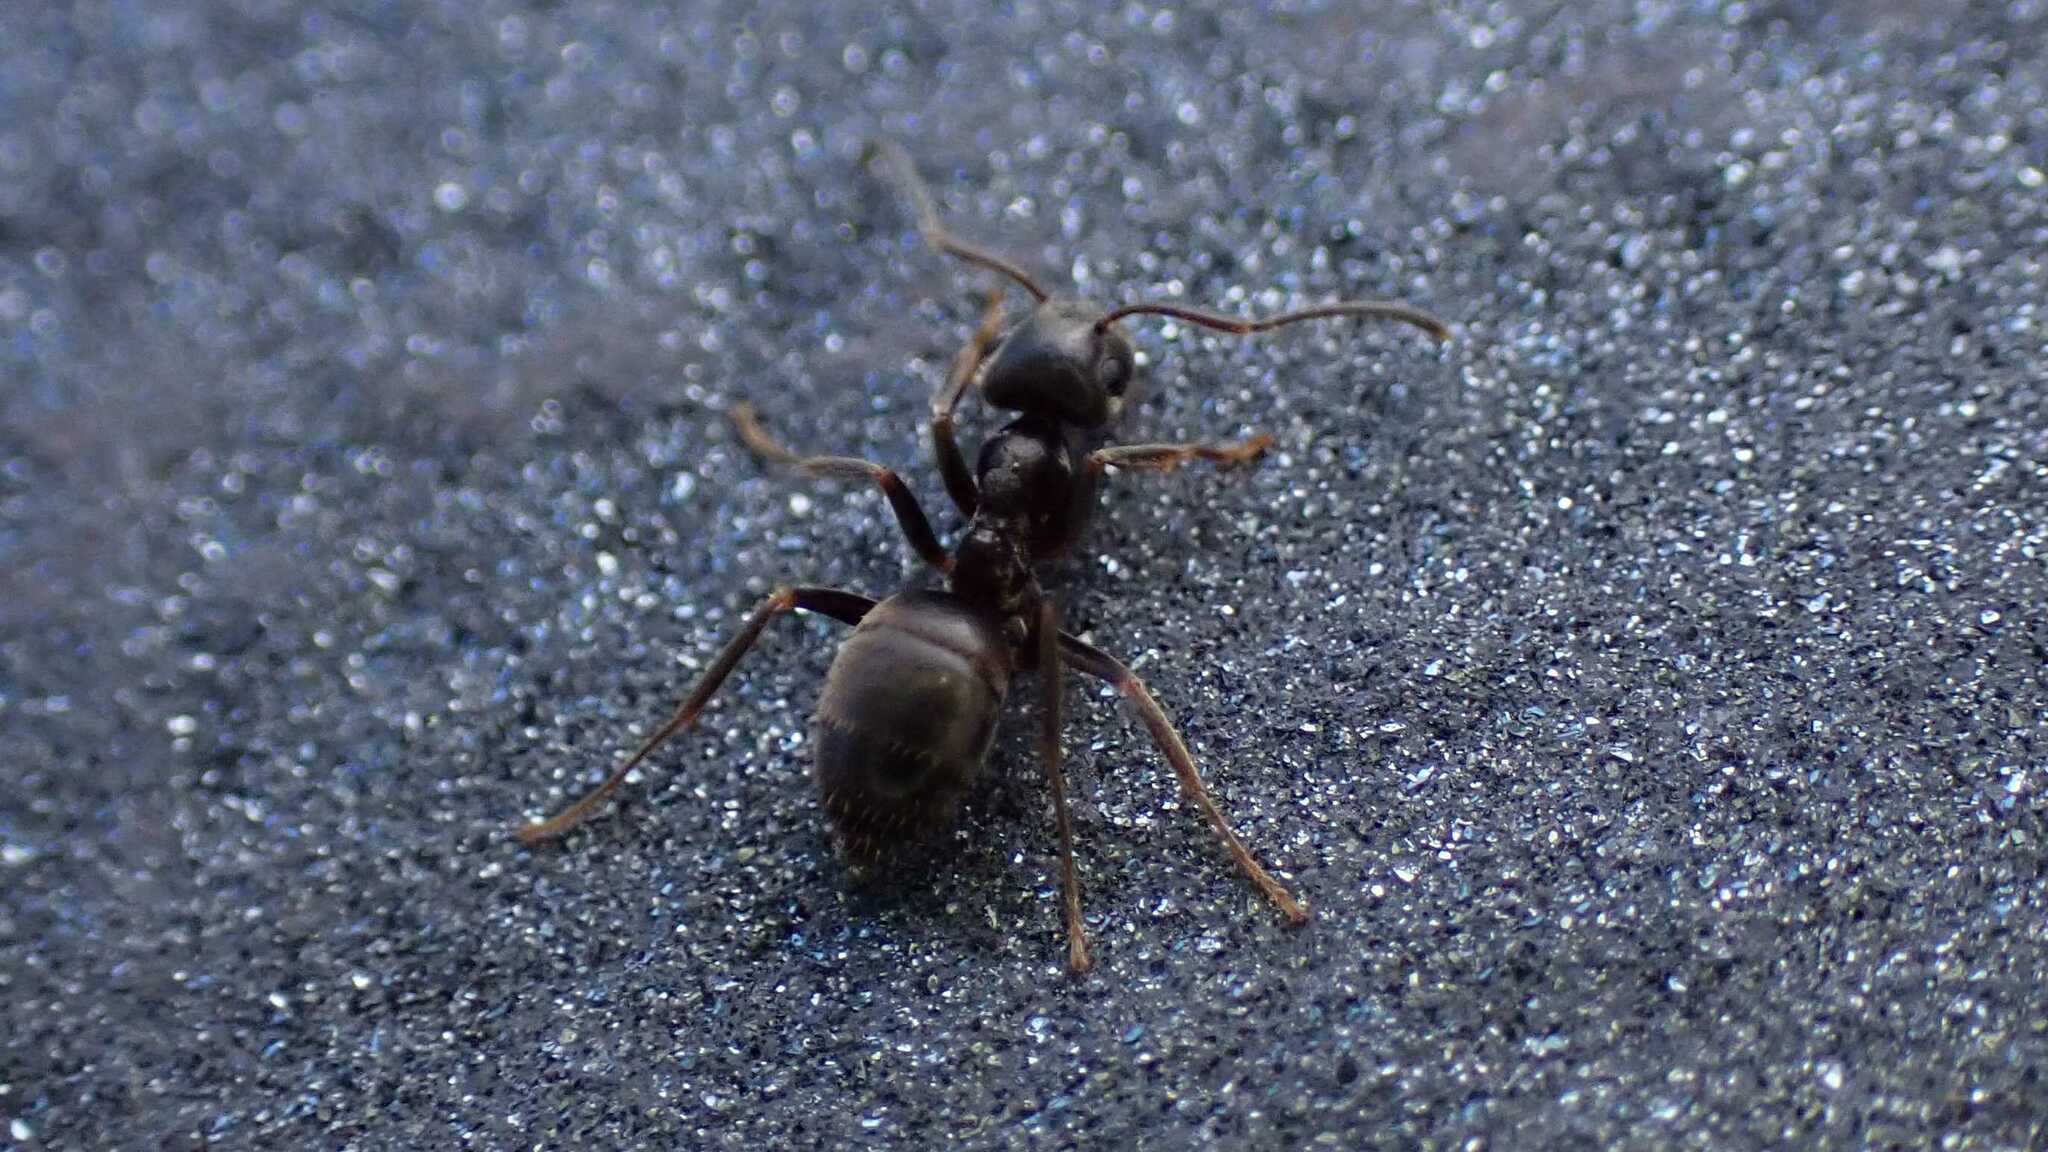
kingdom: Animalia
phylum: Arthropoda
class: Insecta
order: Hymenoptera
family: Formicidae
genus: Lasius
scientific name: Lasius
